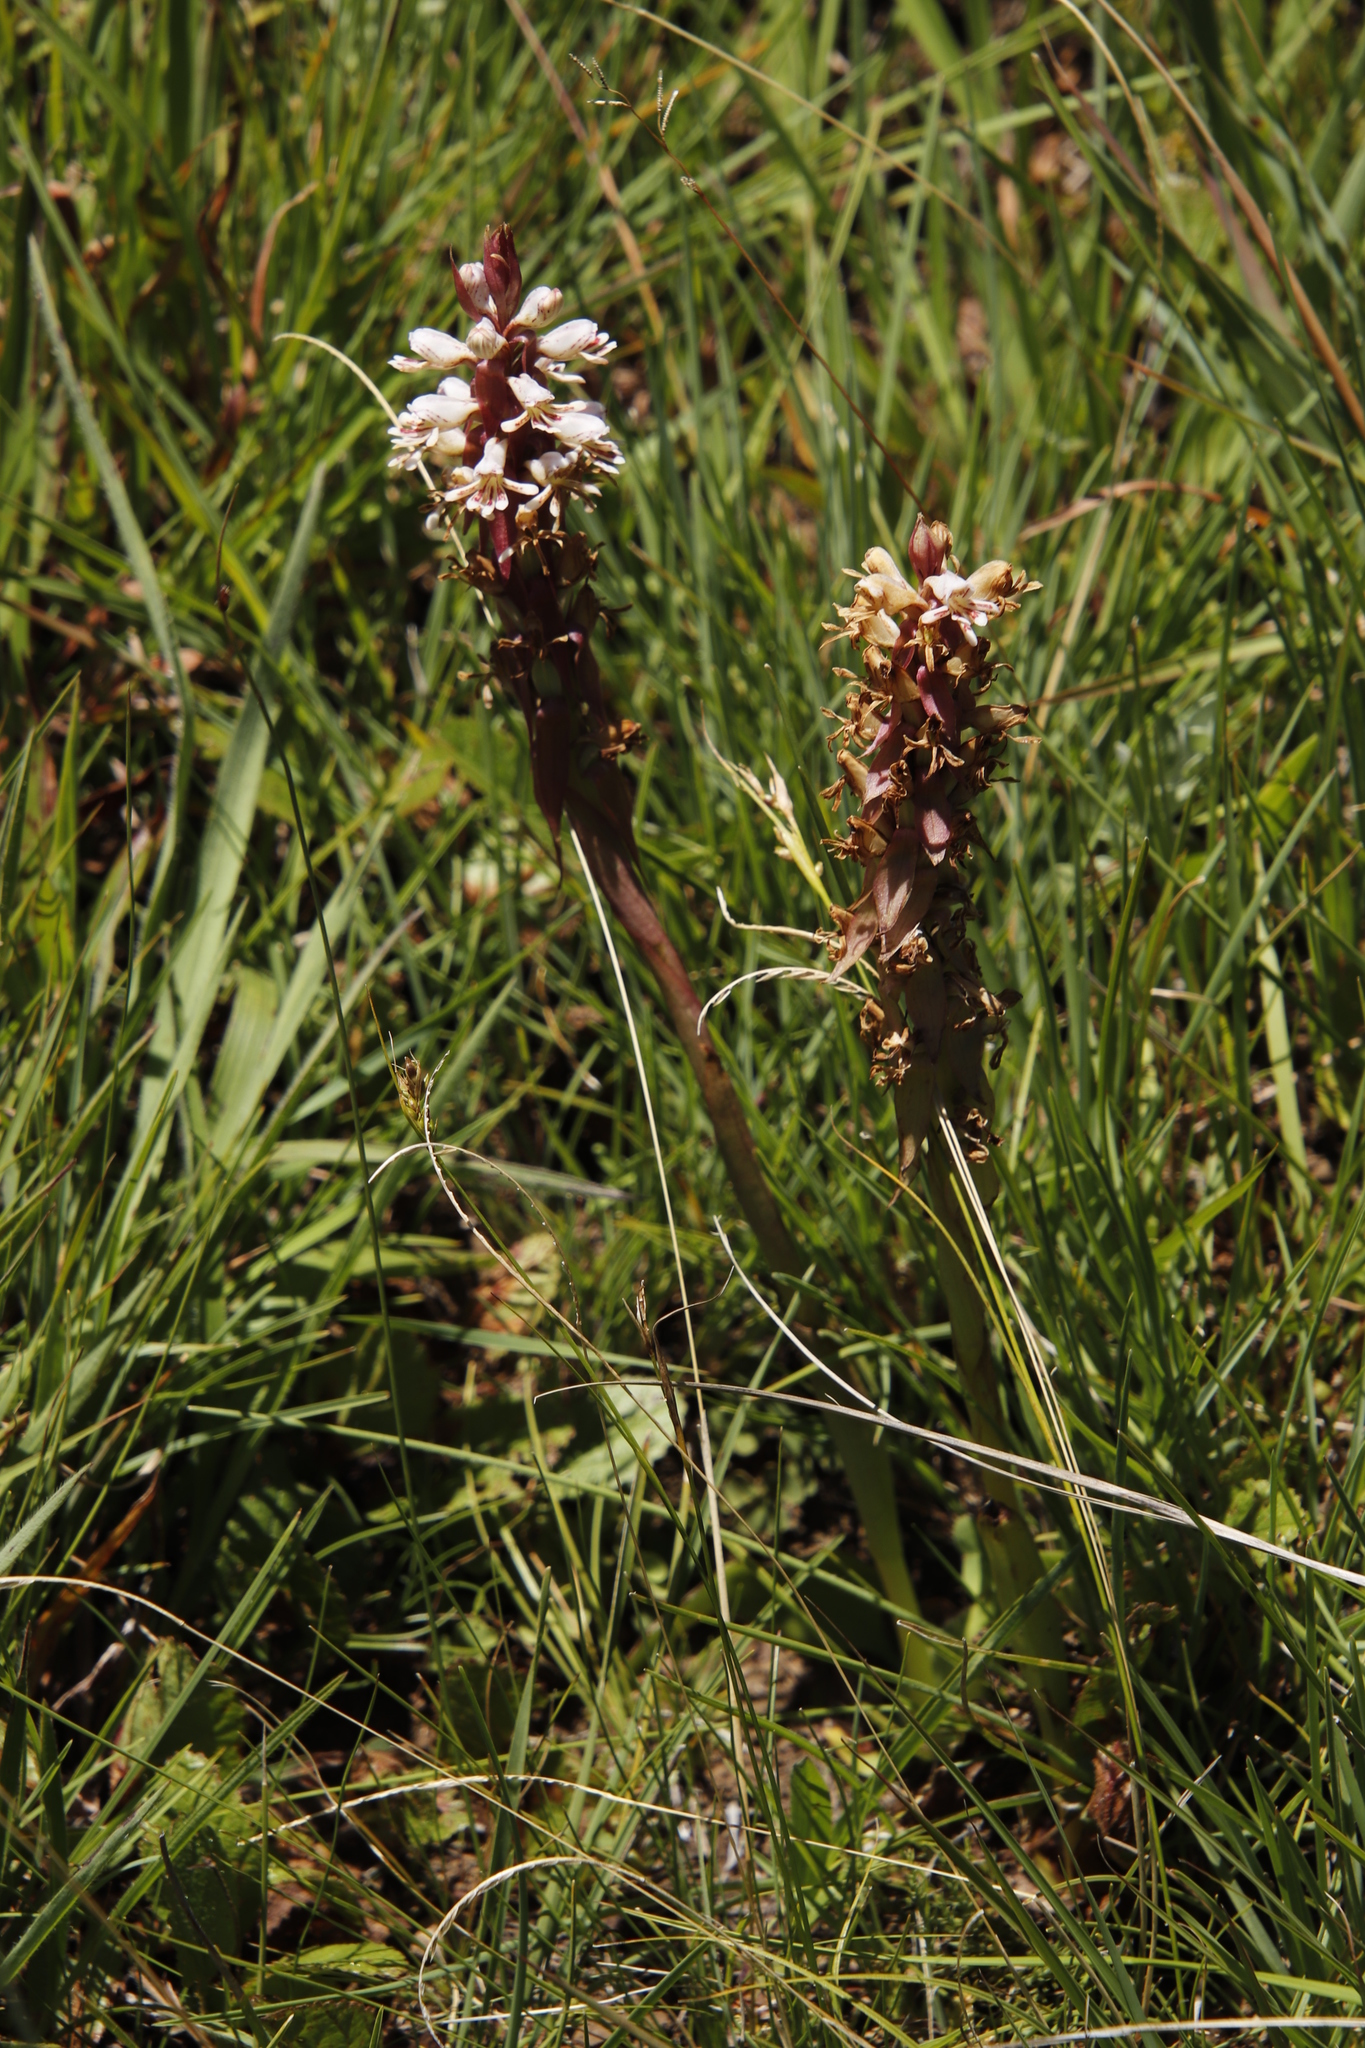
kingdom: Plantae
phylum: Tracheophyta
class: Liliopsida
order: Asparagales
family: Orchidaceae
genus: Satyrium
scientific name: Satyrium cristatum
